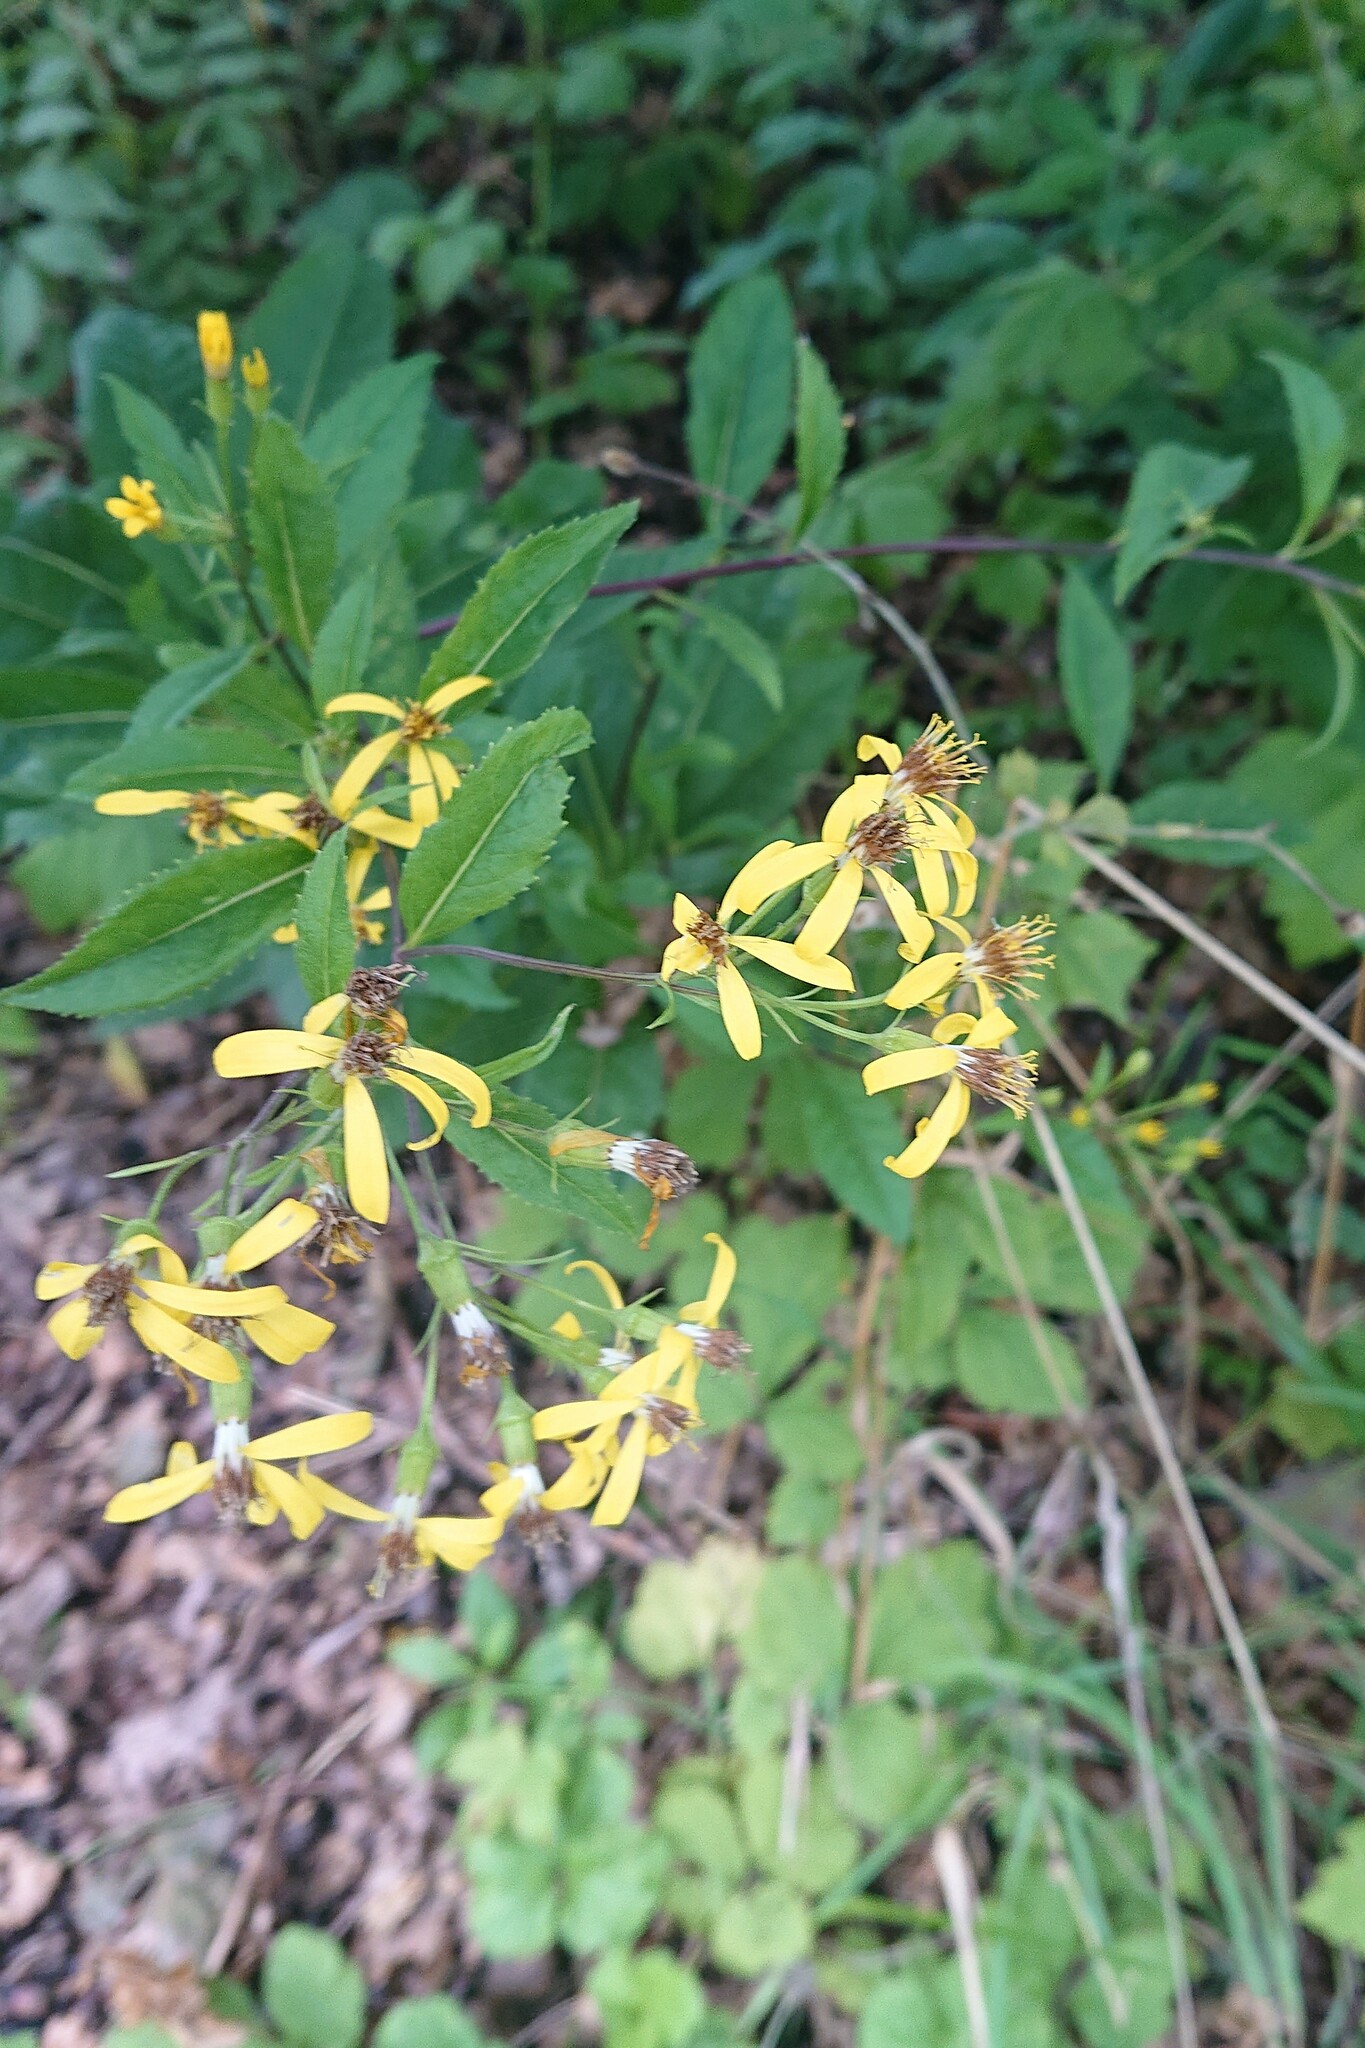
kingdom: Plantae
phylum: Tracheophyta
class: Magnoliopsida
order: Asterales
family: Asteraceae
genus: Senecio
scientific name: Senecio ovatus
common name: Wood ragwort
